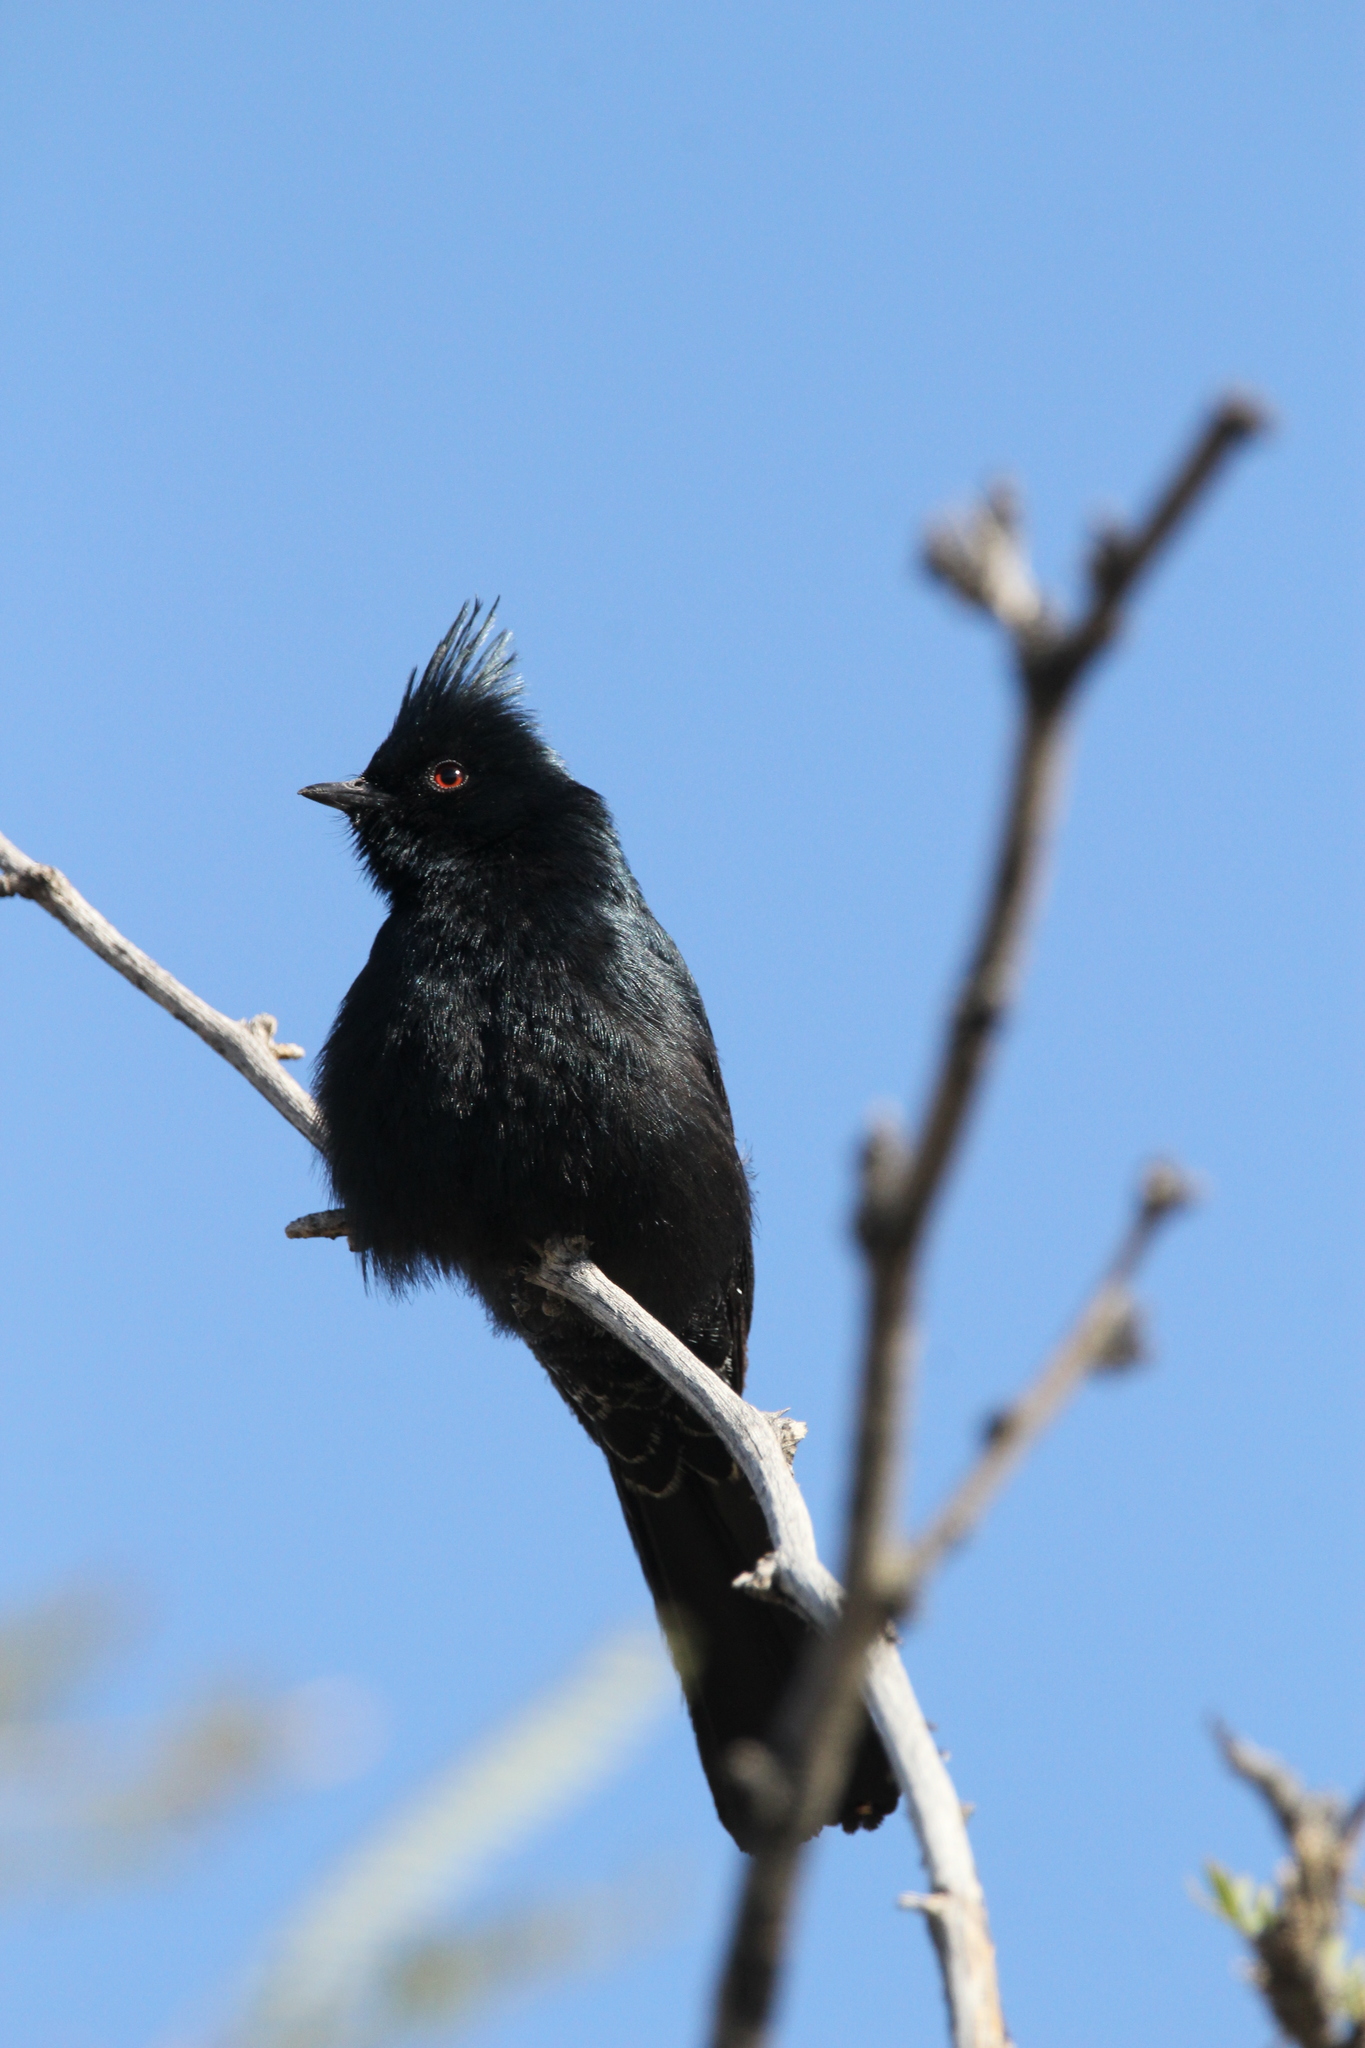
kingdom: Animalia
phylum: Chordata
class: Aves
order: Passeriformes
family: Ptilogonatidae
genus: Phainopepla
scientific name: Phainopepla nitens
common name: Phainopepla
